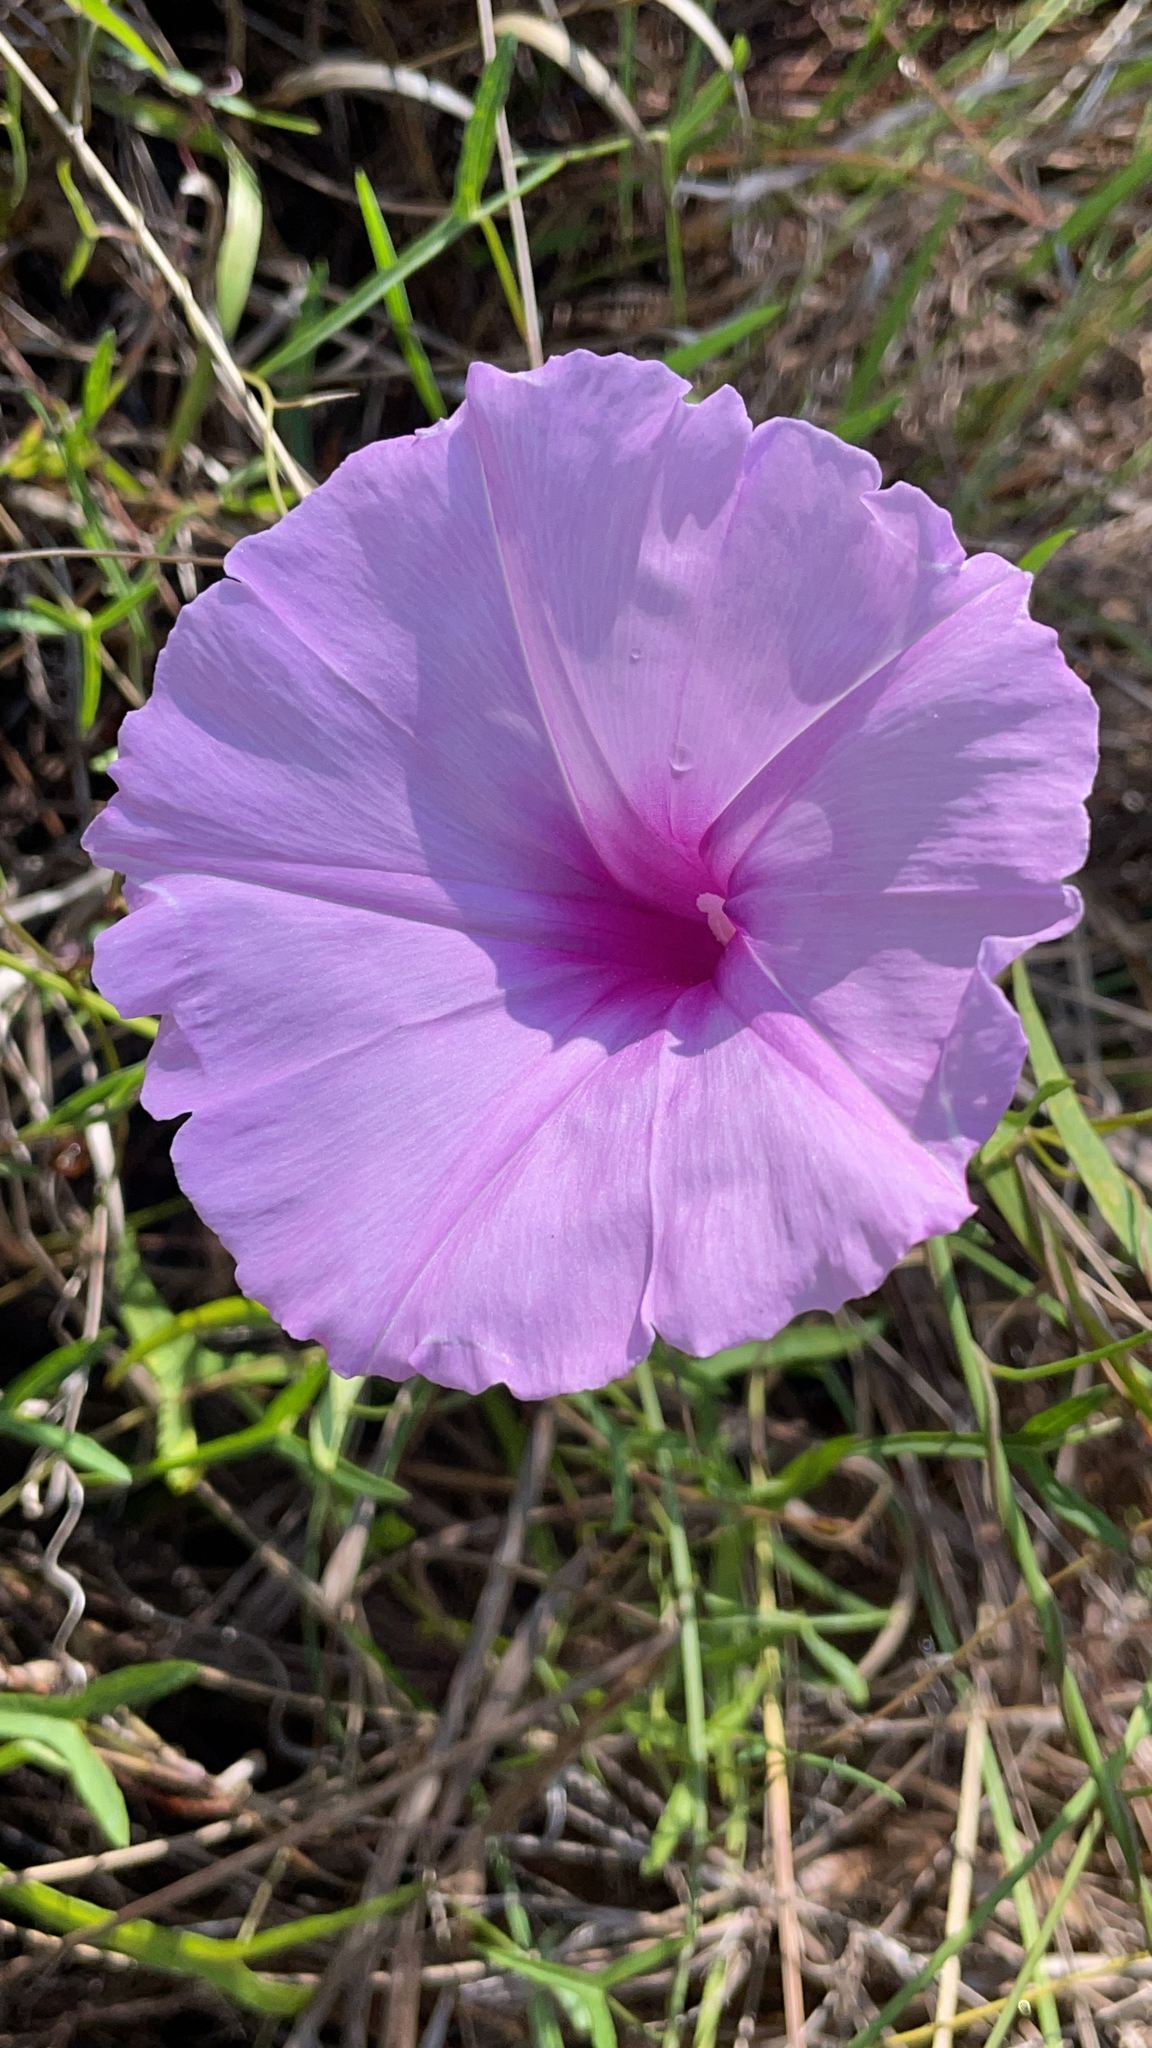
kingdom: Plantae
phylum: Tracheophyta
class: Magnoliopsida
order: Solanales
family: Convolvulaceae
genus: Ipomoea
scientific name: Ipomoea sagittata
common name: Saltmarsh morning glory
